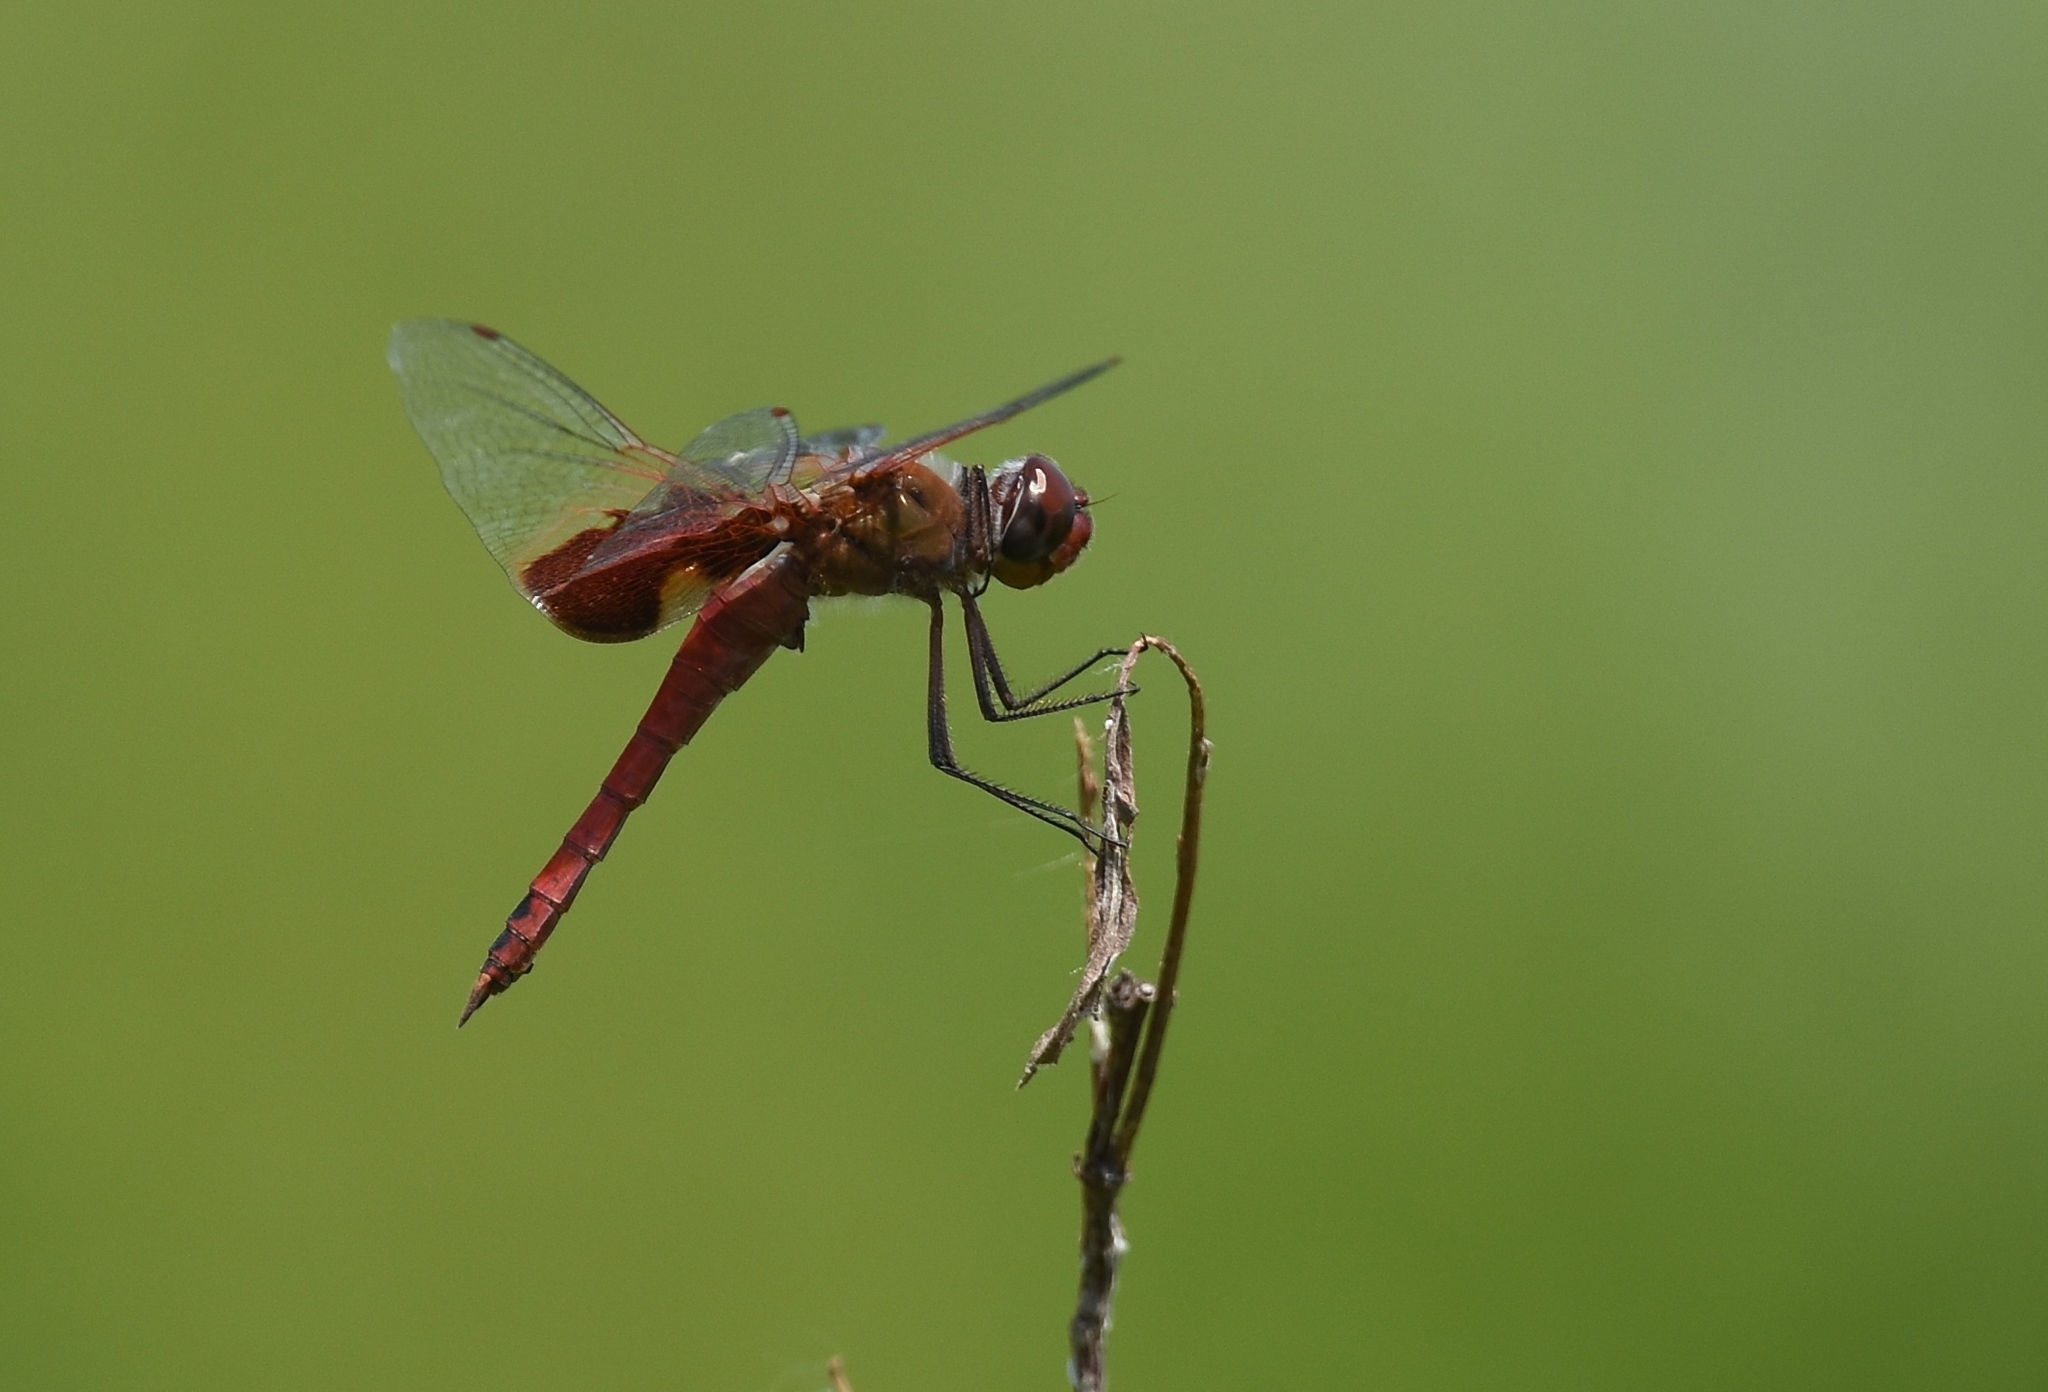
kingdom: Animalia
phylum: Arthropoda
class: Insecta
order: Odonata
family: Libellulidae
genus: Tramea
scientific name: Tramea onusta
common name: Red saddlebags
